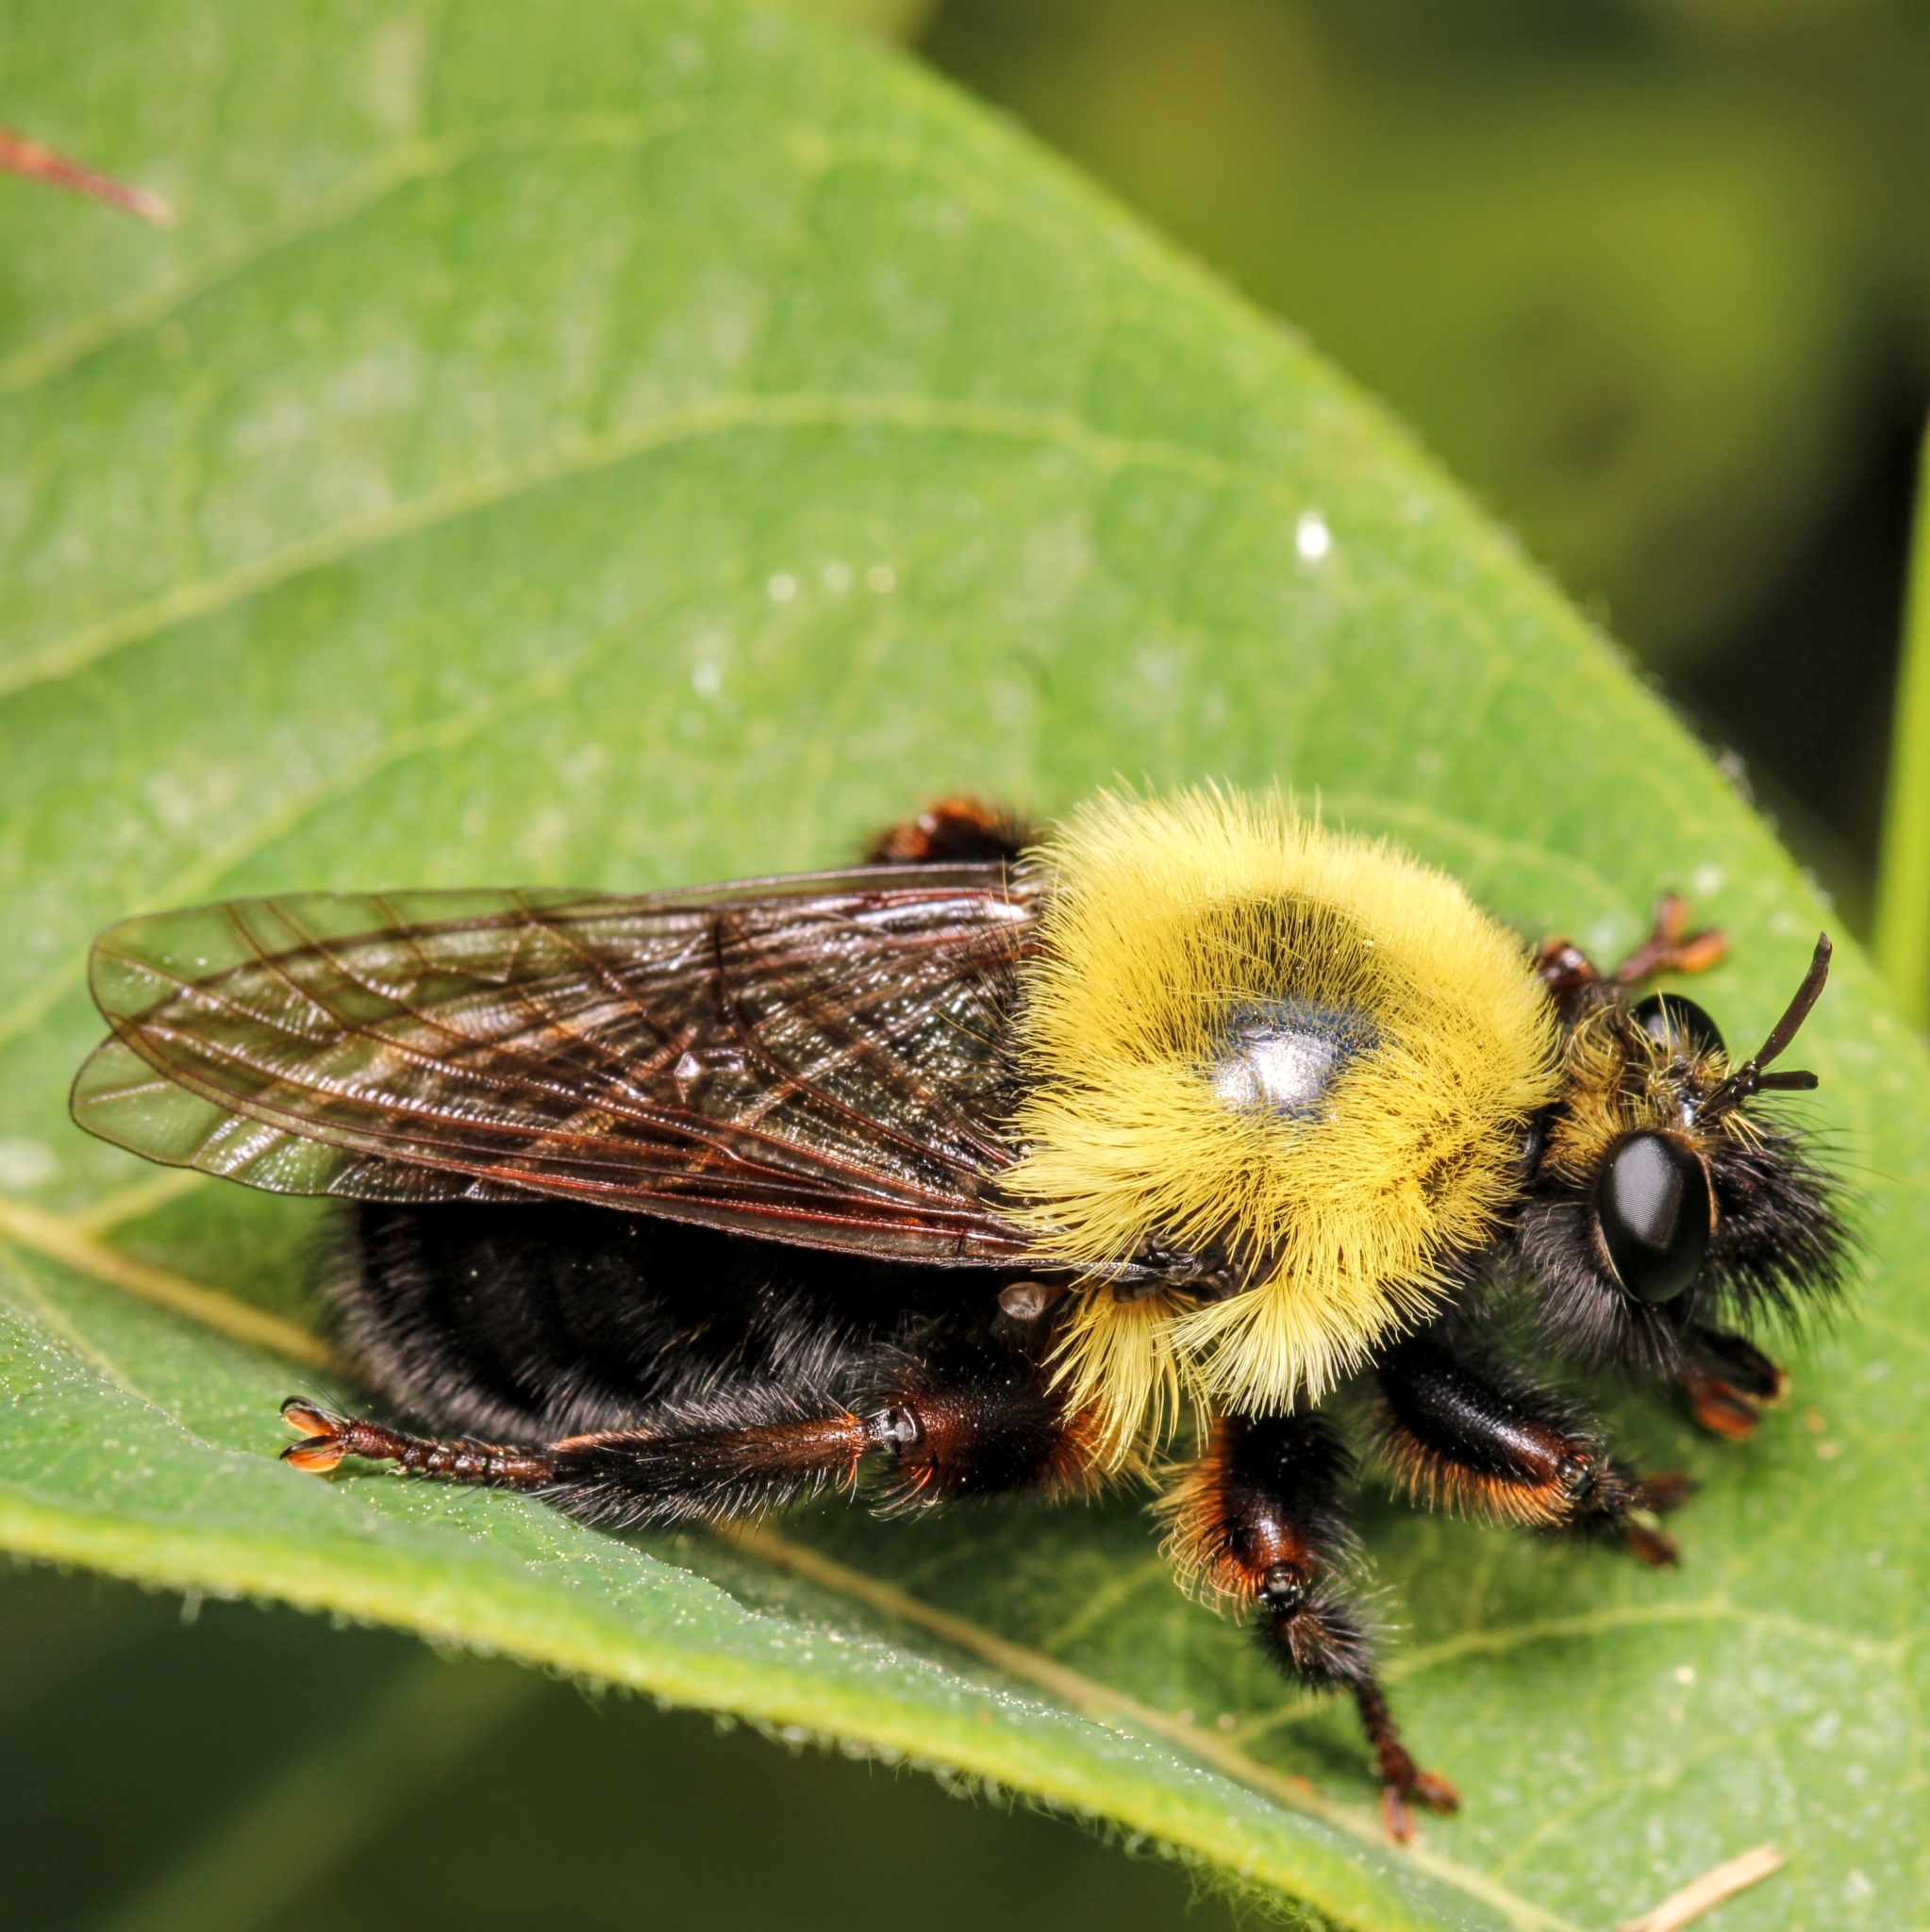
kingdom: Animalia
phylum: Arthropoda
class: Insecta
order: Diptera
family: Asilidae
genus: Laphria
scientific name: Laphria thoracica
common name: Bumble bee mimic robber fly
